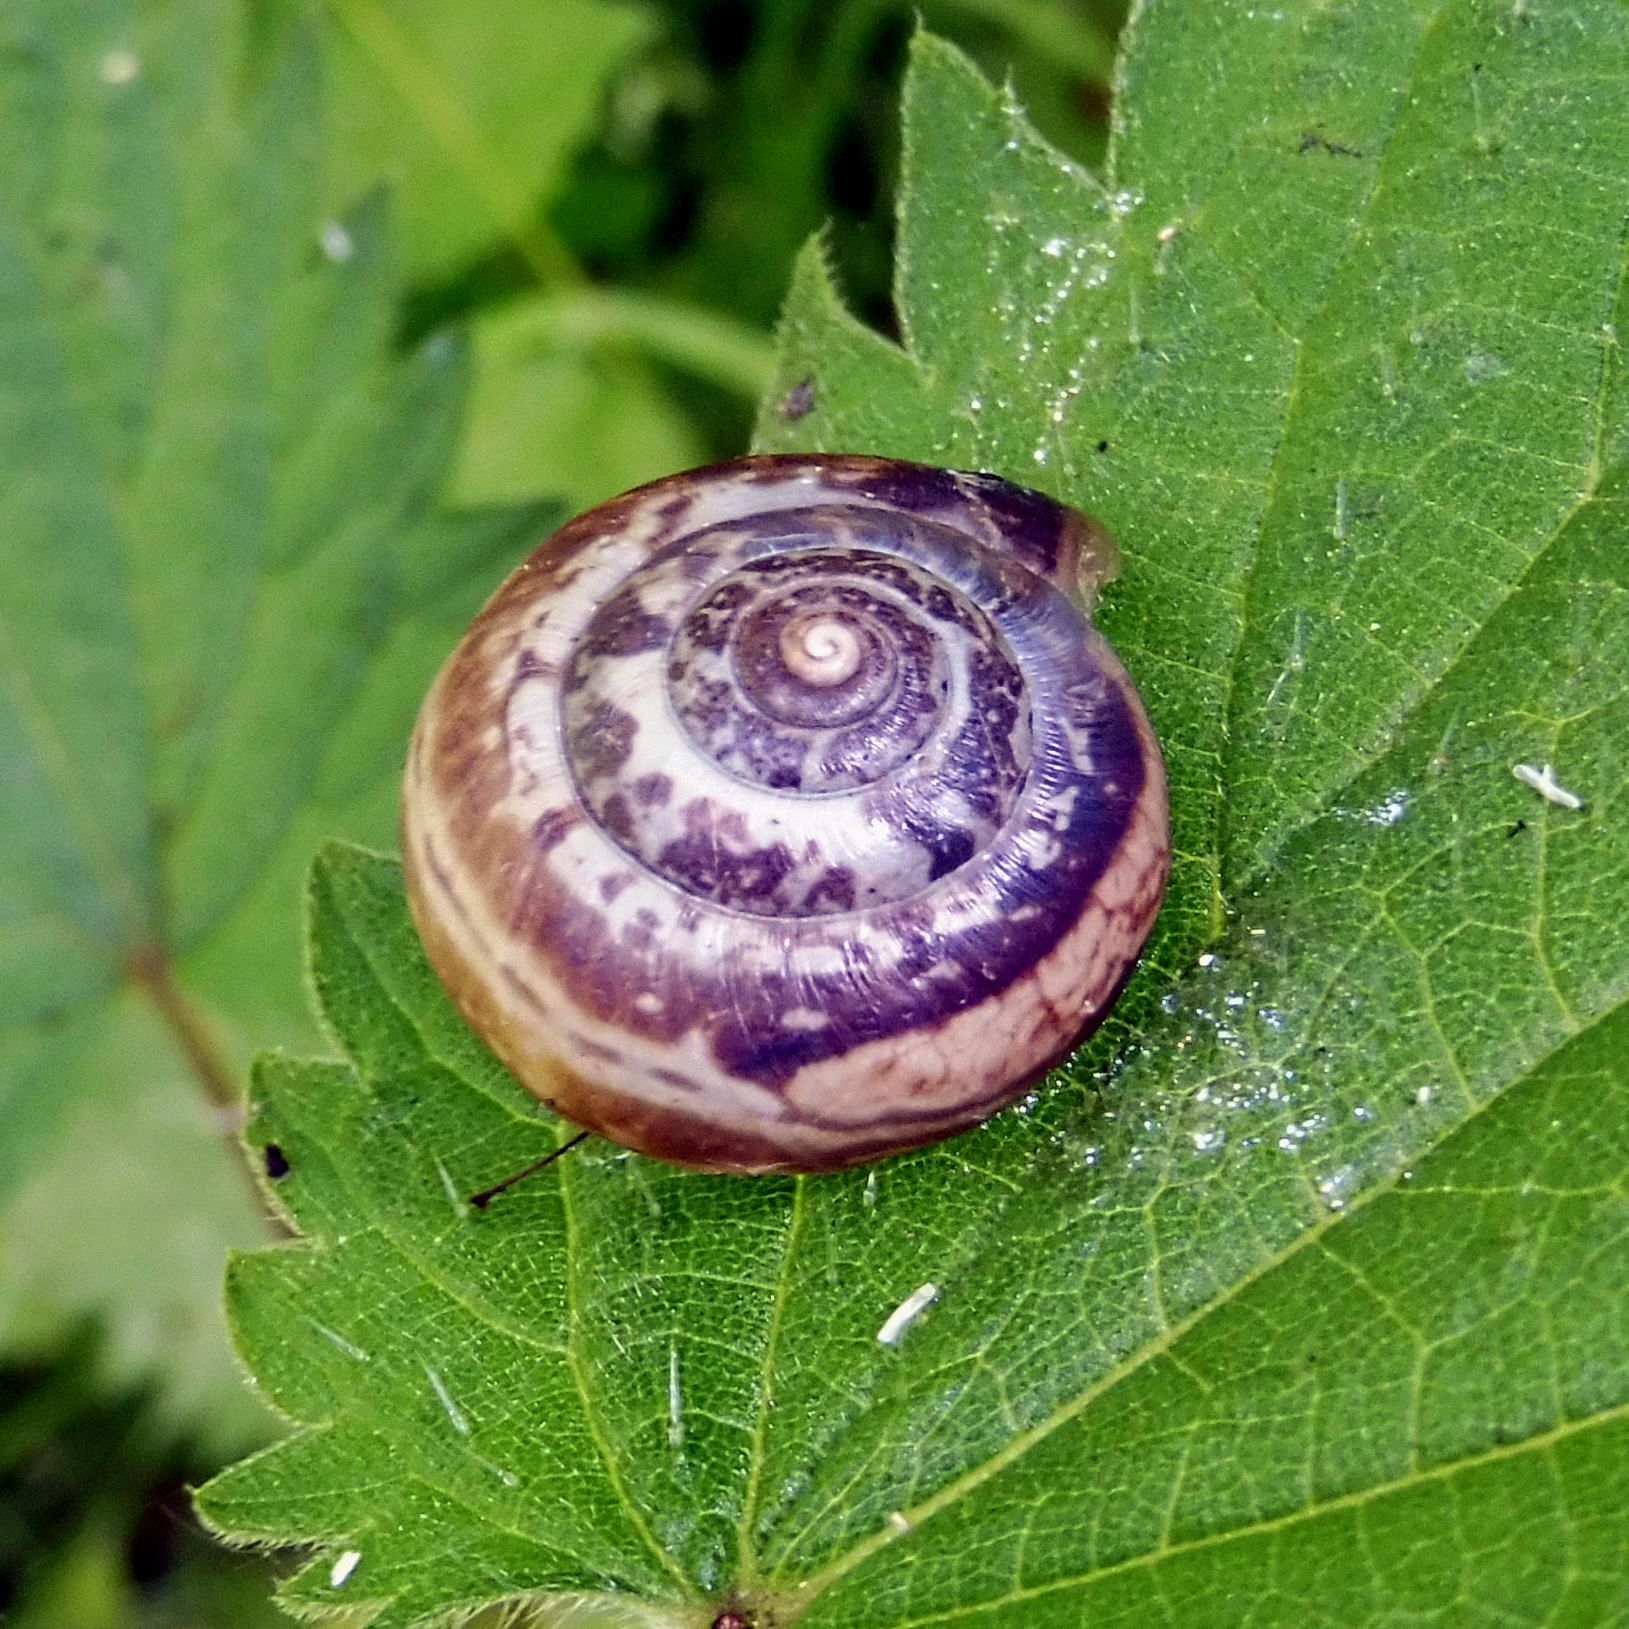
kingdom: Animalia
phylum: Mollusca
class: Gastropoda
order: Stylommatophora
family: Hygromiidae
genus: Monacha
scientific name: Monacha cantiana
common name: Kentish snail
